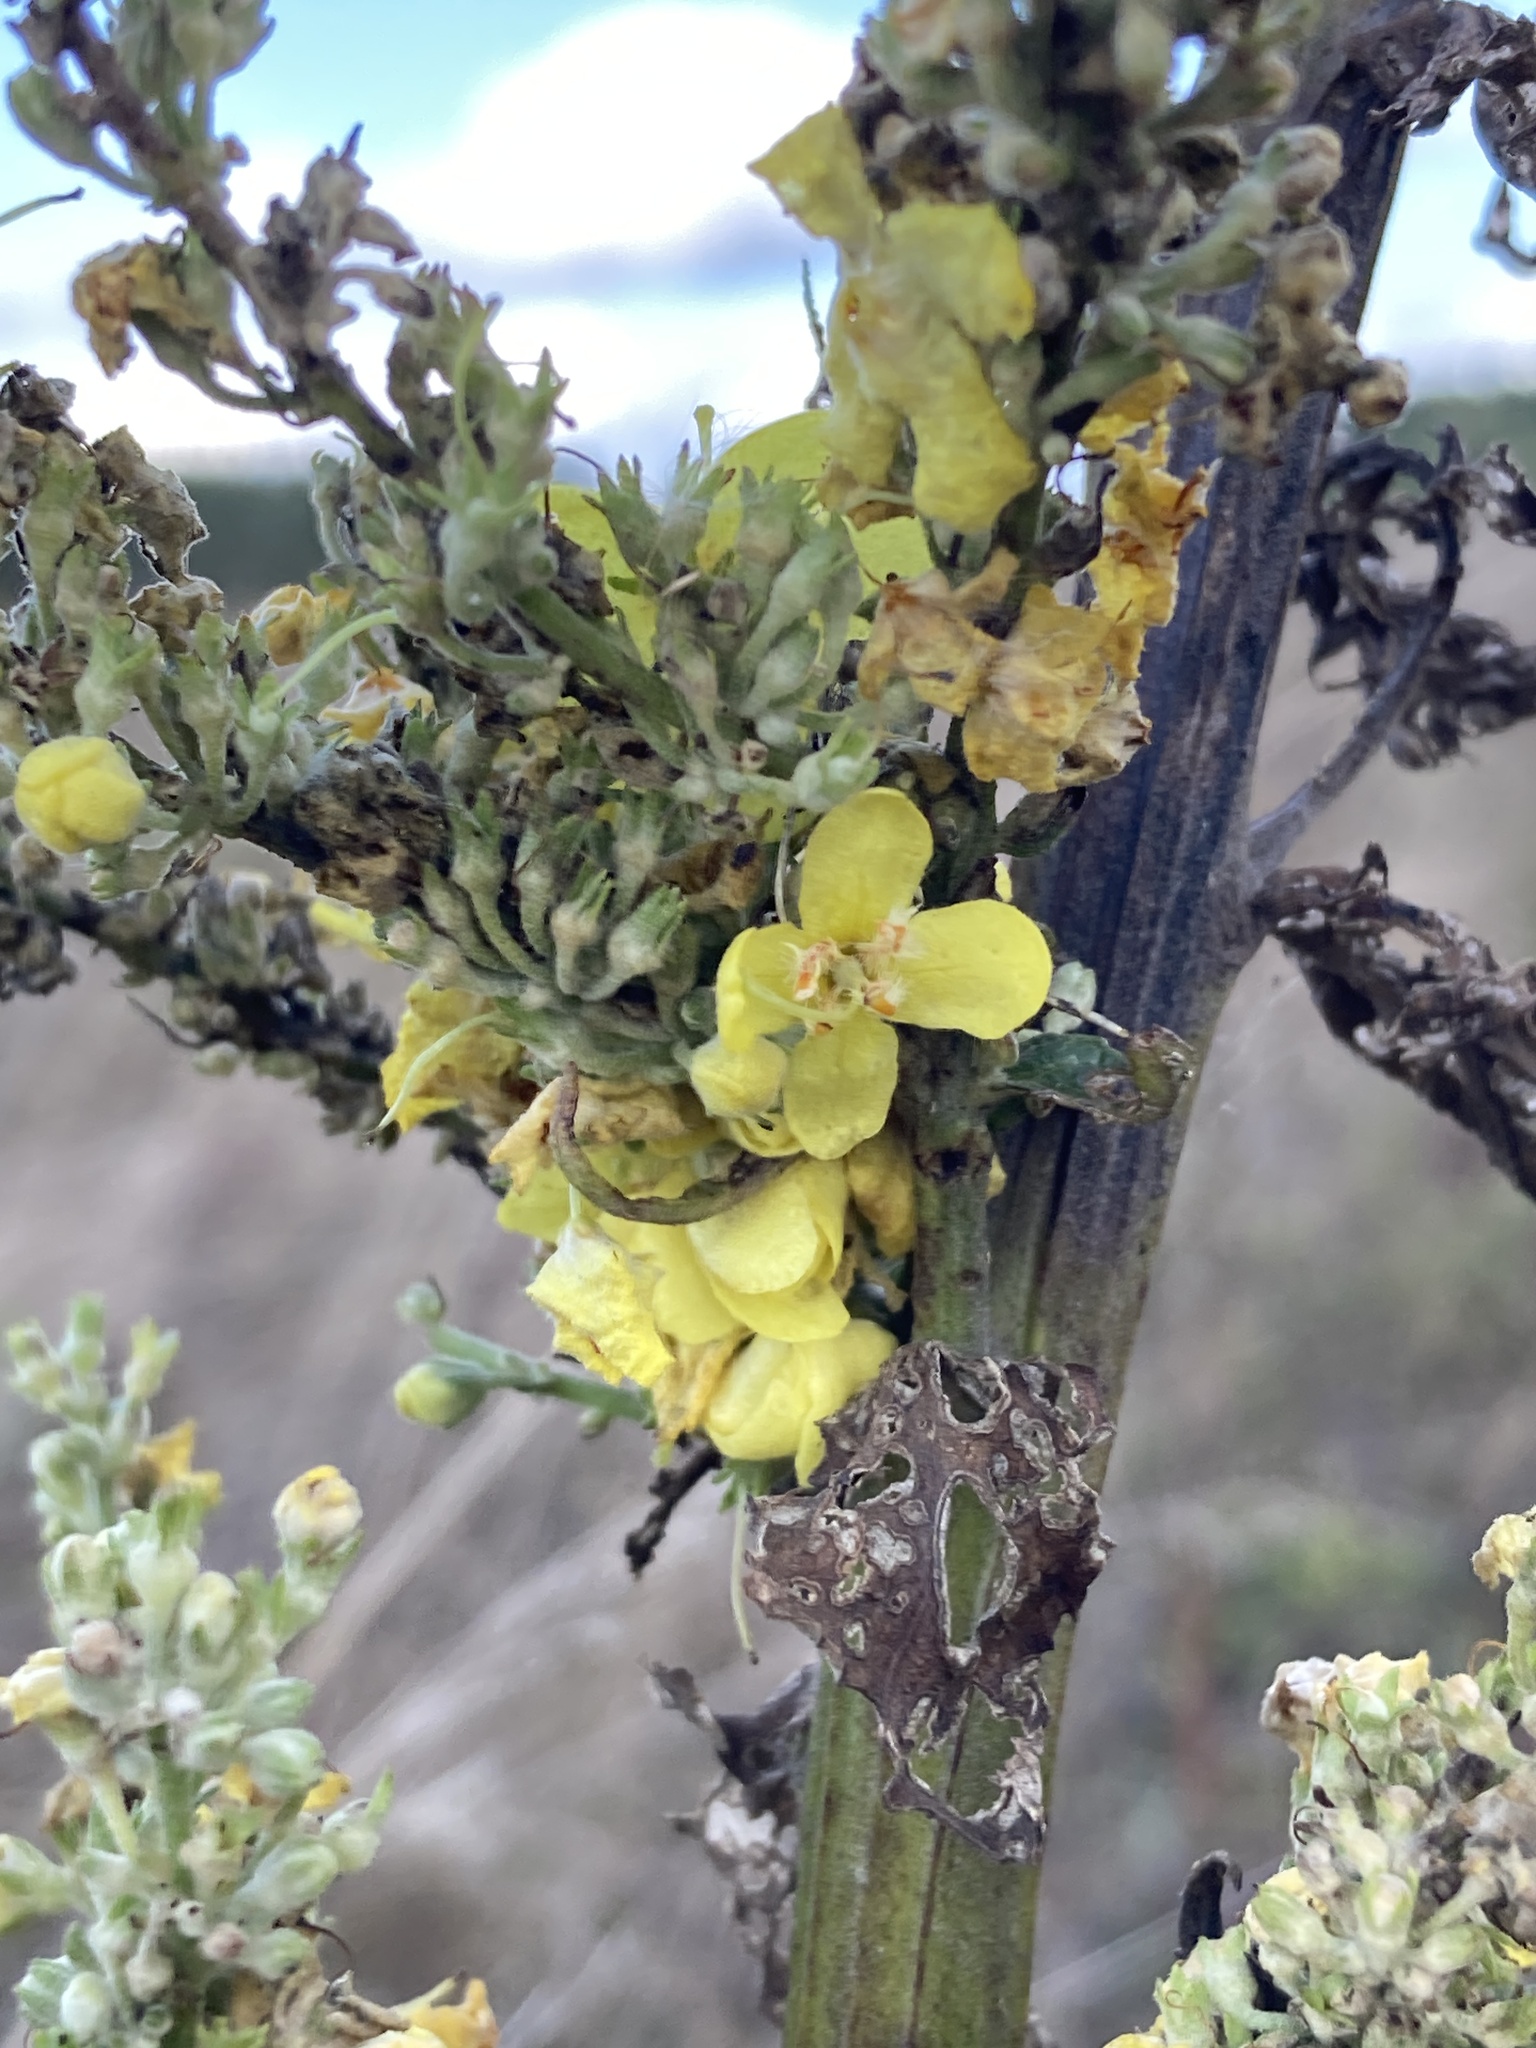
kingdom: Plantae
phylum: Tracheophyta
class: Magnoliopsida
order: Lamiales
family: Scrophulariaceae
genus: Verbascum
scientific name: Verbascum lychnitis
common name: White mullein
